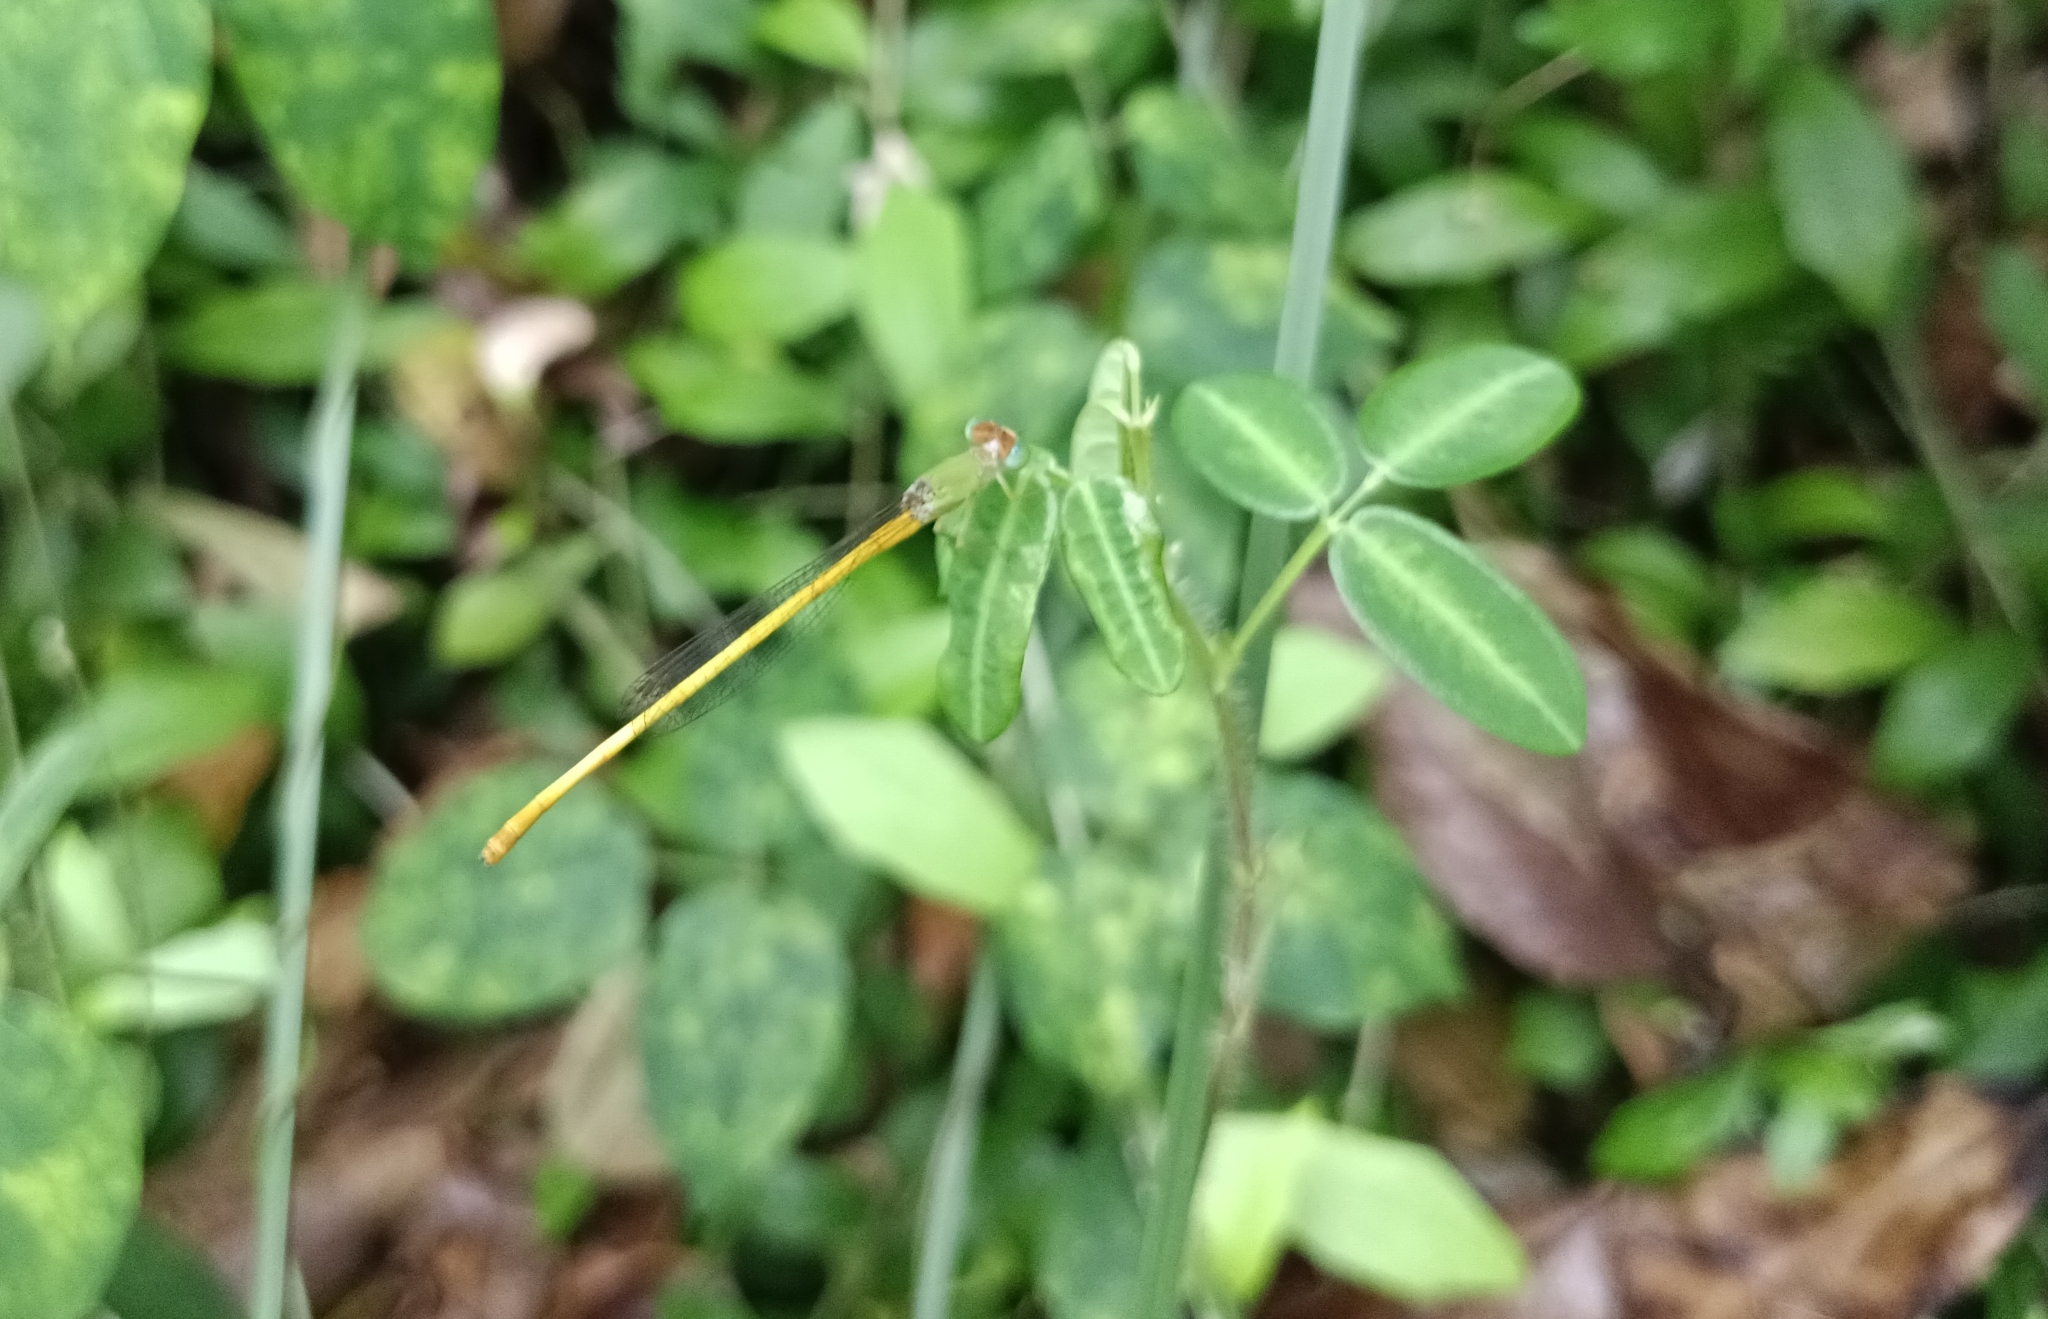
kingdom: Animalia
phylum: Arthropoda
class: Insecta
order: Odonata
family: Coenagrionidae
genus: Ceriagrion
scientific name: Ceriagrion coromandelianum
